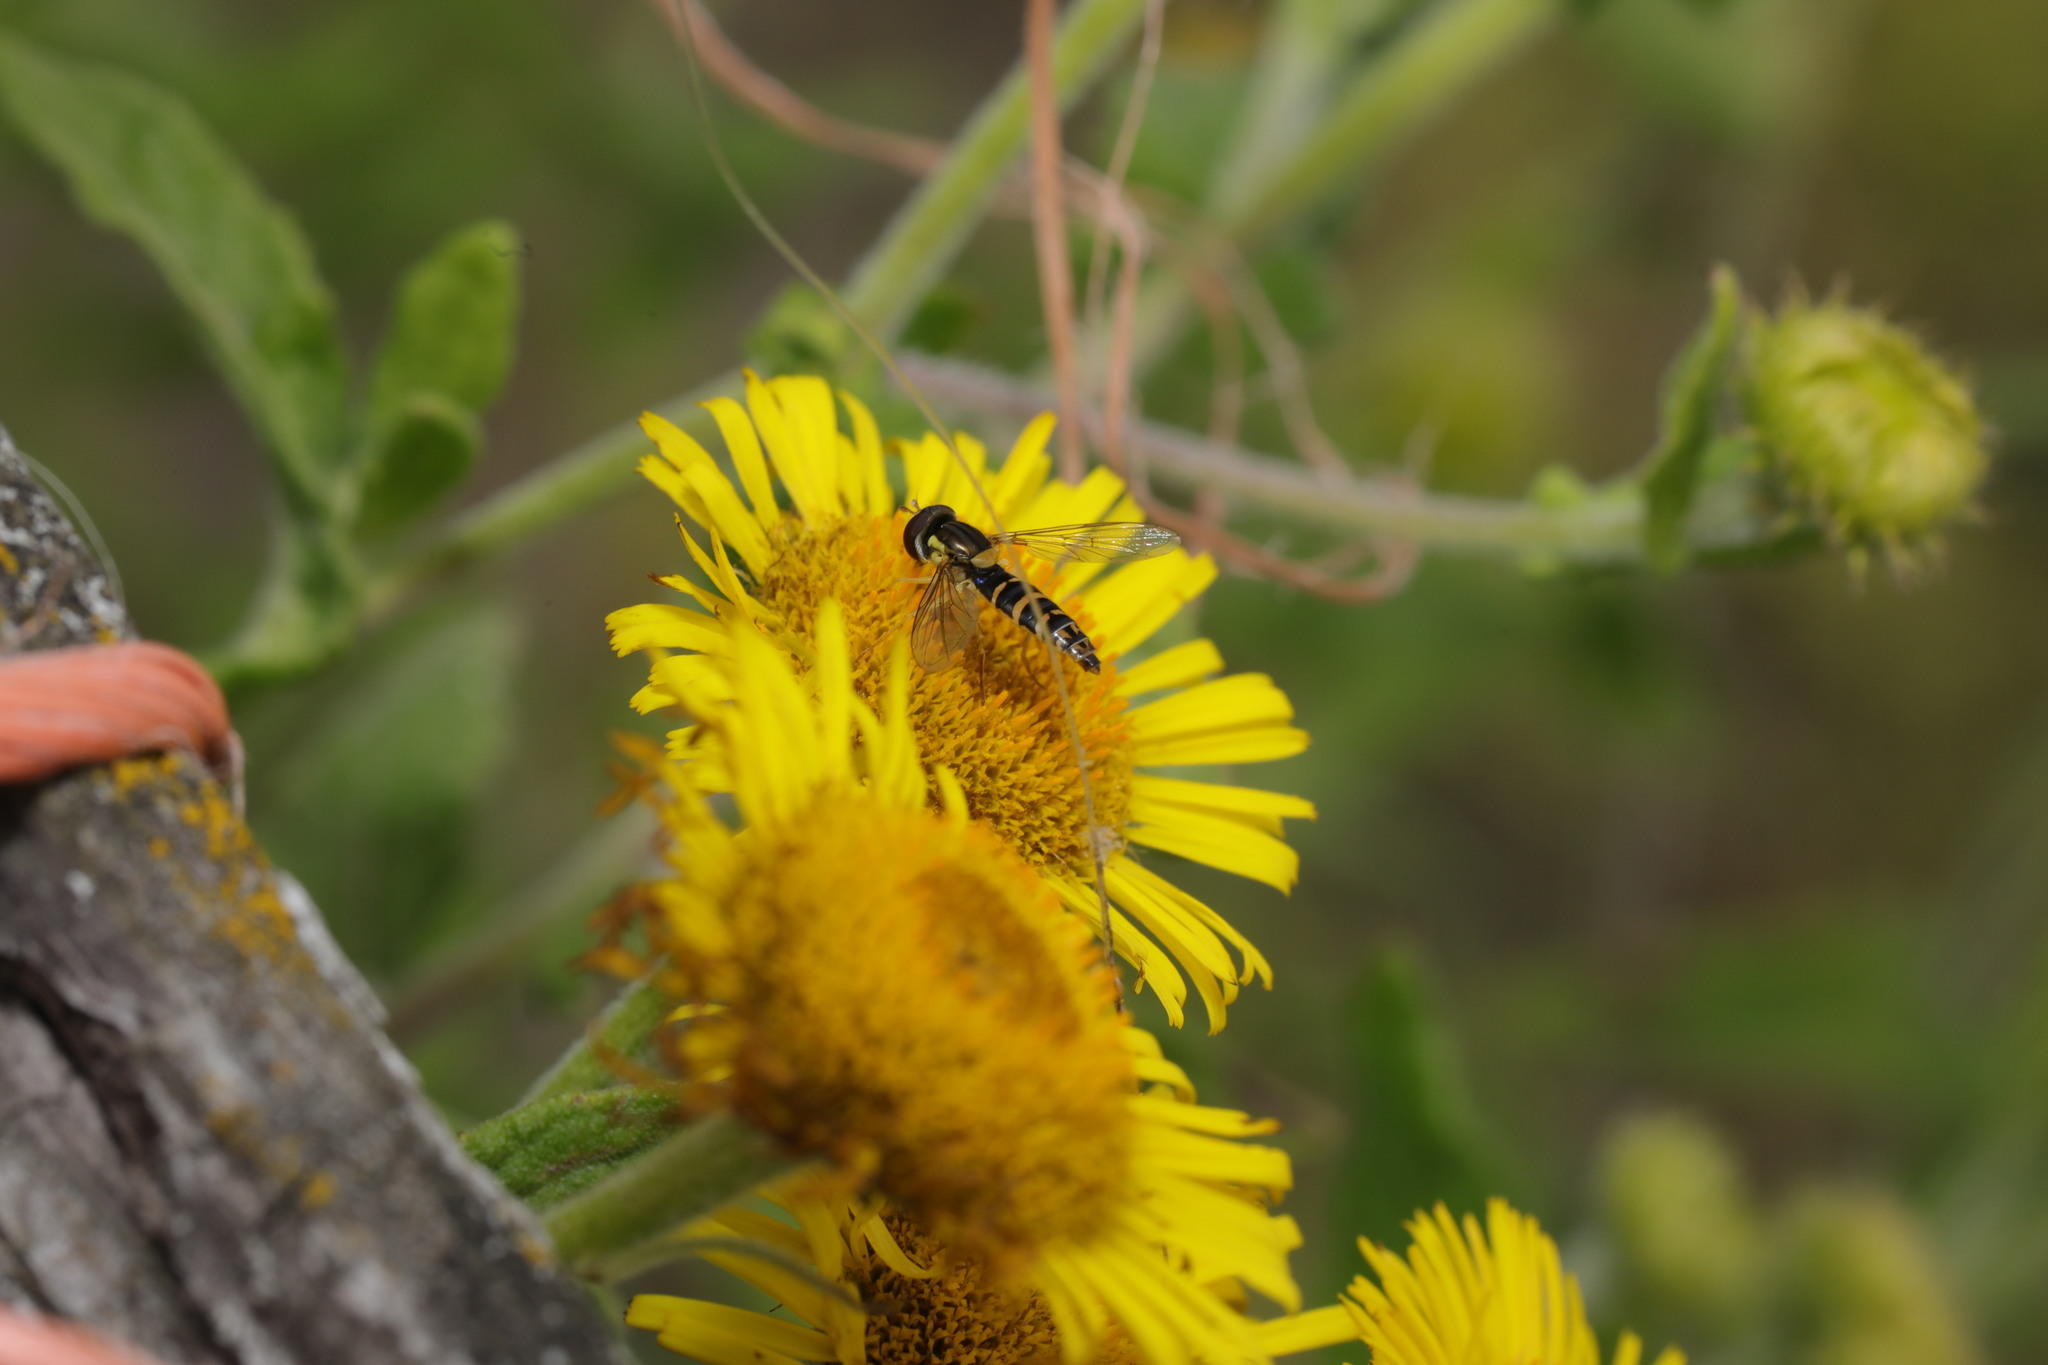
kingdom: Animalia
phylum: Arthropoda
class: Insecta
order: Diptera
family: Syrphidae
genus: Sphaerophoria
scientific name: Sphaerophoria
